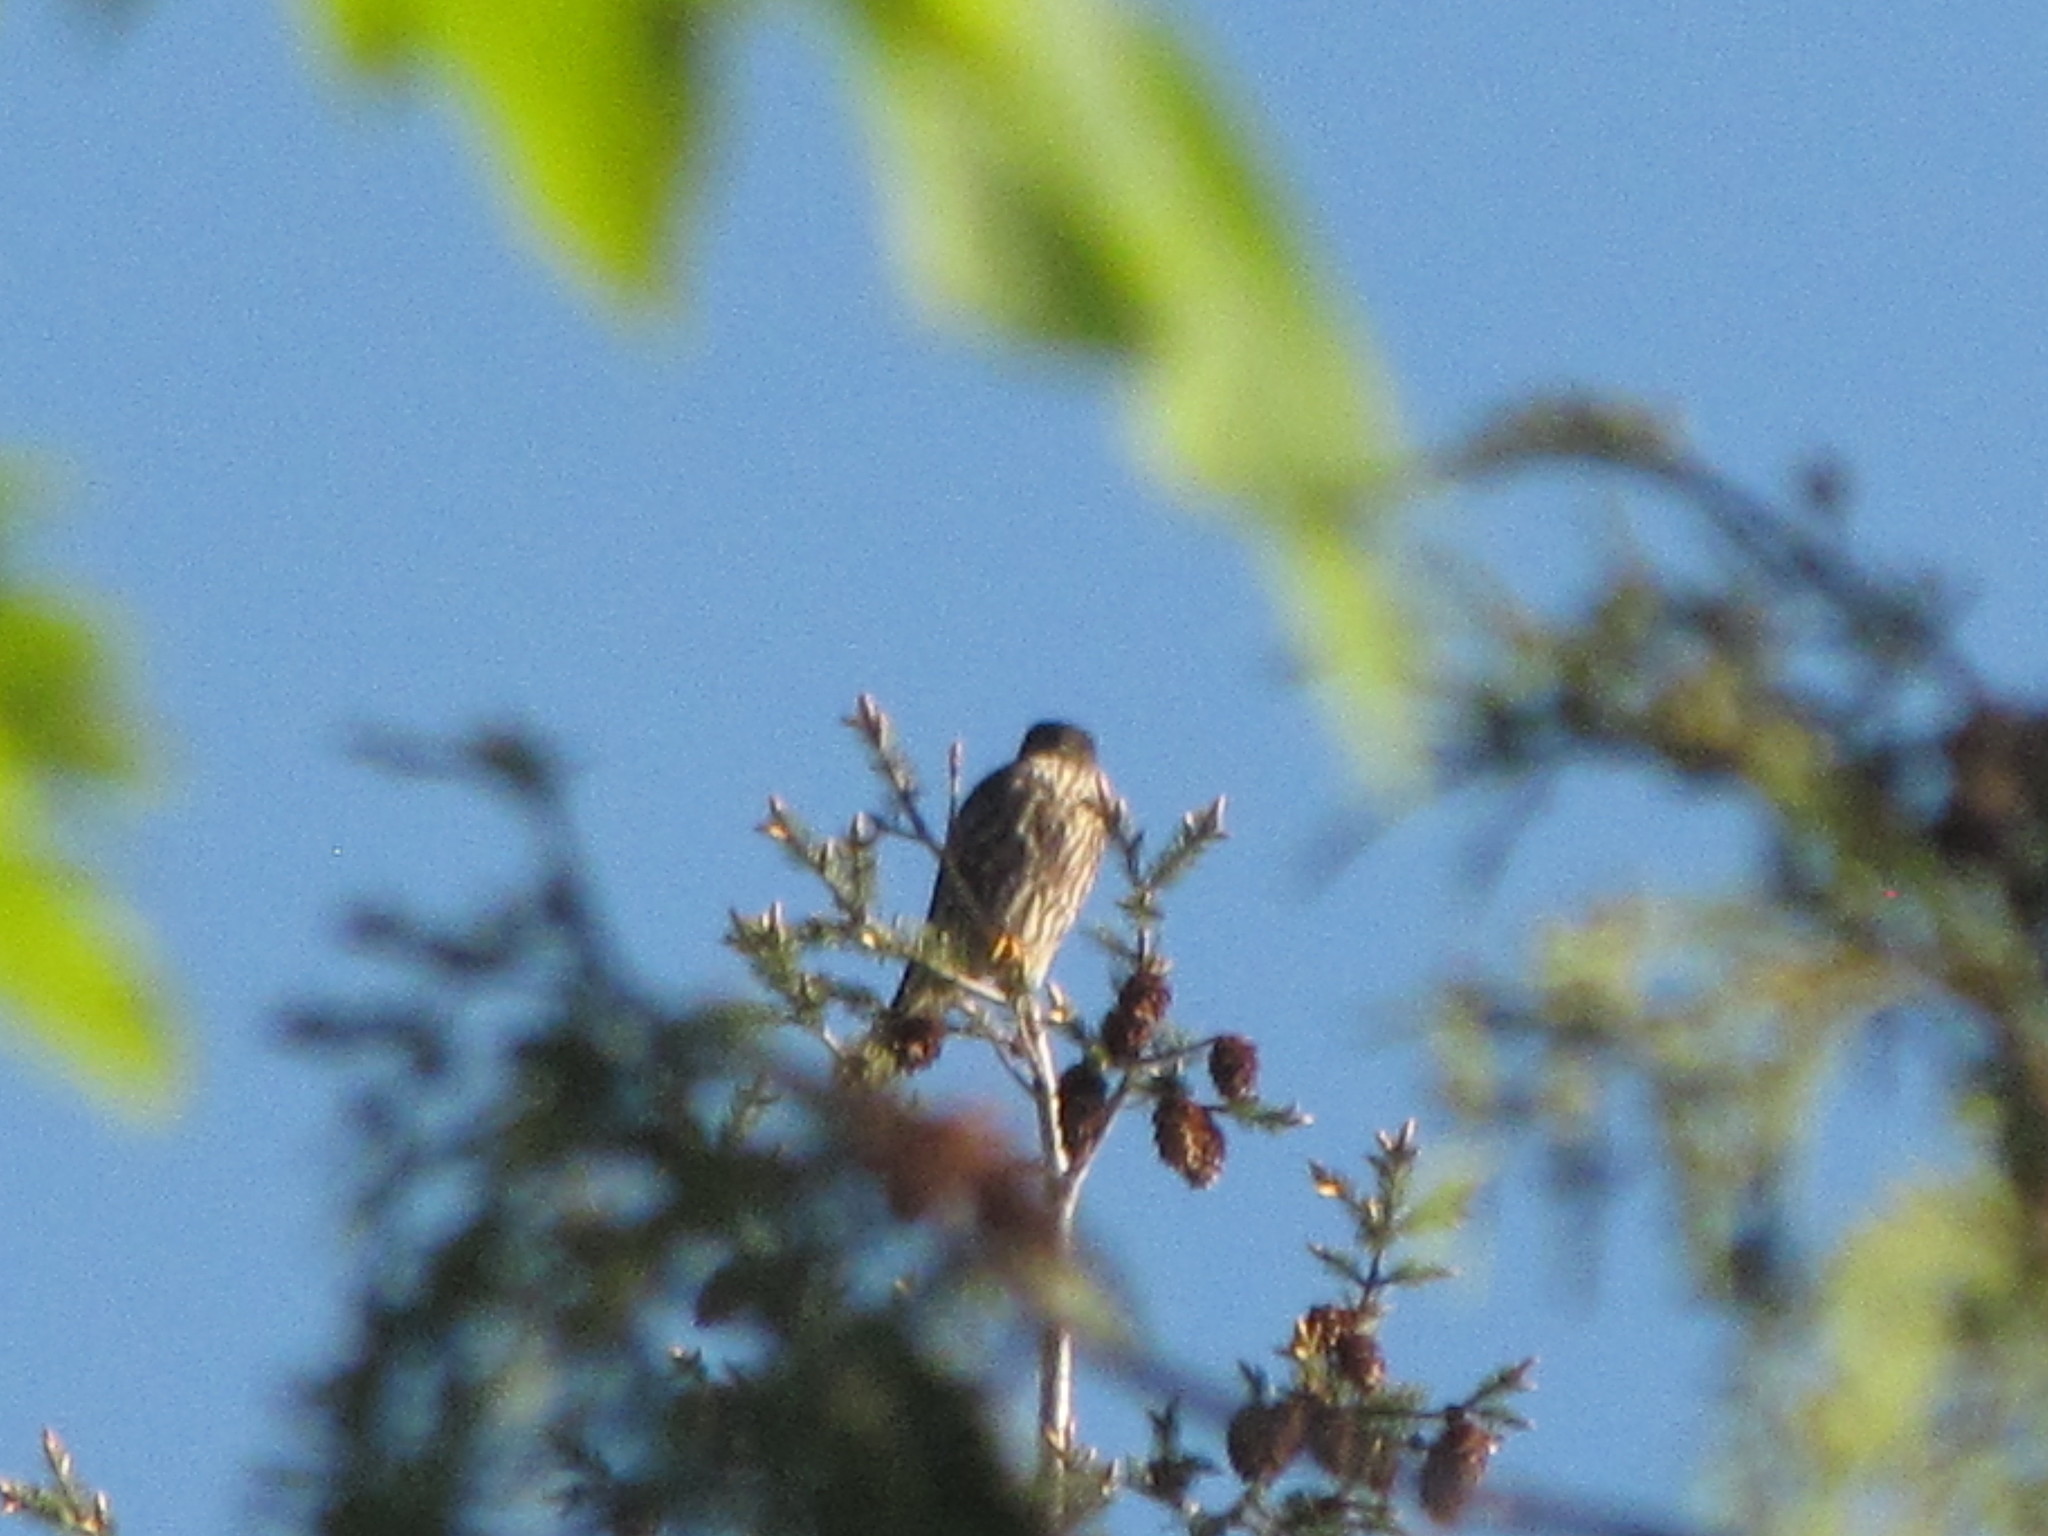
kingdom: Animalia
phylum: Chordata
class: Aves
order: Falconiformes
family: Falconidae
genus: Falco
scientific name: Falco columbarius
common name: Merlin
